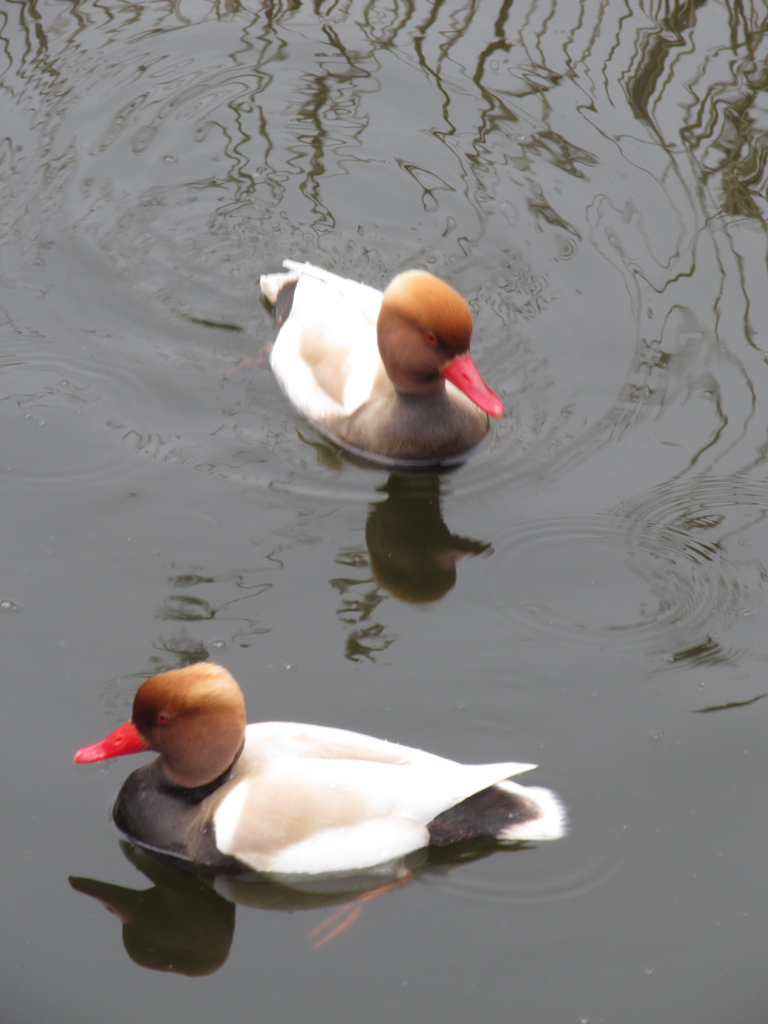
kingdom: Animalia
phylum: Chordata
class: Aves
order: Anseriformes
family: Anatidae
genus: Netta
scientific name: Netta rufina
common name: Red-crested pochard
